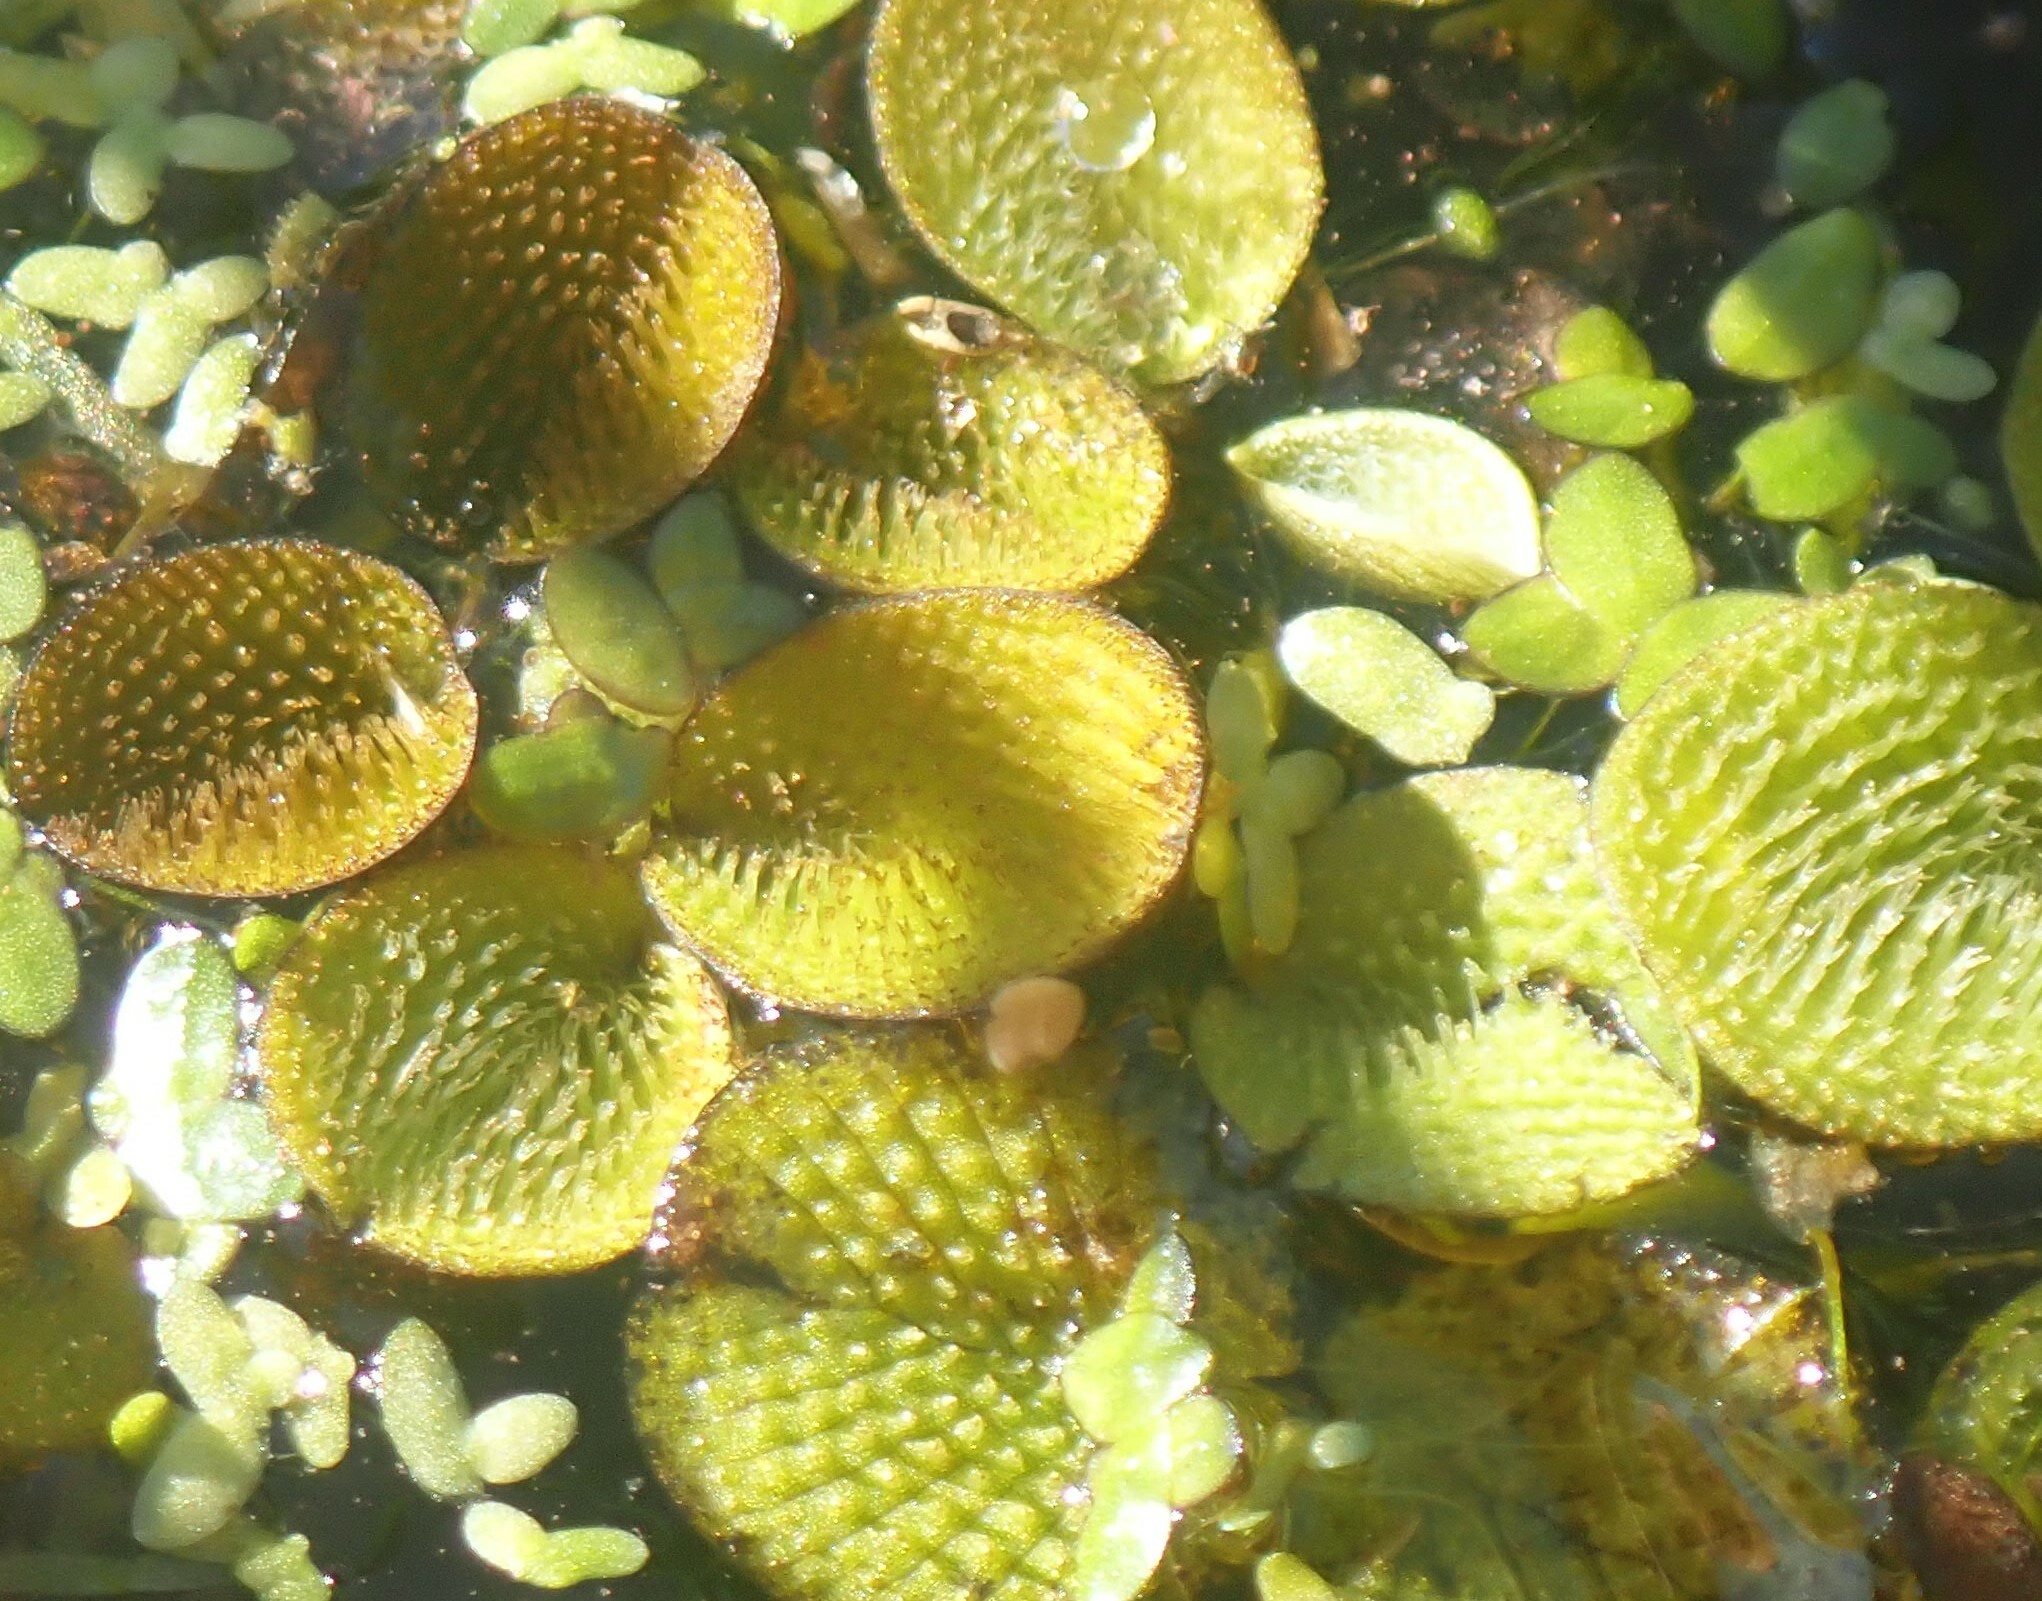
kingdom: Plantae
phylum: Tracheophyta
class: Polypodiopsida
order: Salviniales
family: Salviniaceae
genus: Salvinia
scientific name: Salvinia minima
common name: Water spangles
